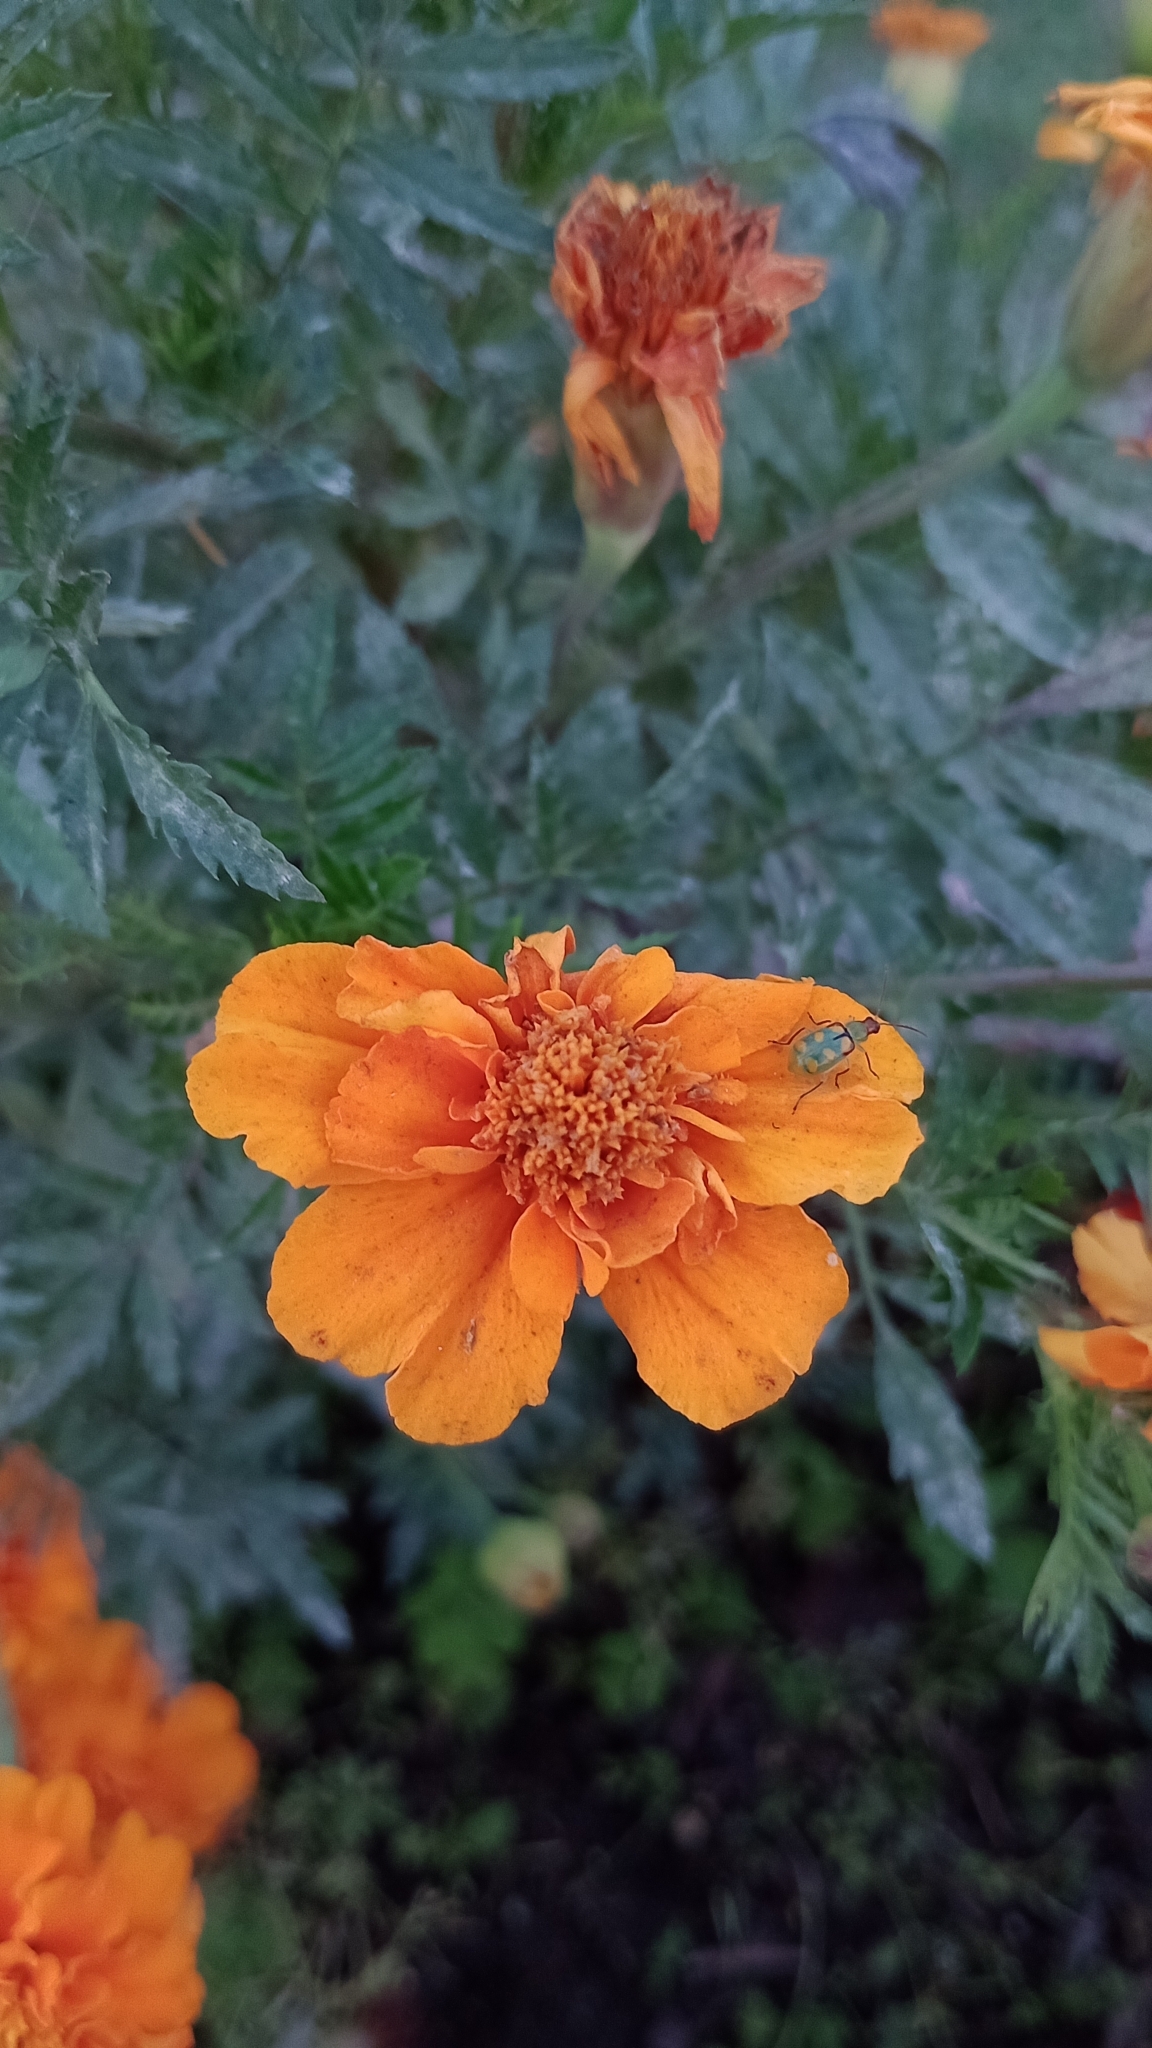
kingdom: Animalia
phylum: Arthropoda
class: Insecta
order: Coleoptera
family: Chrysomelidae
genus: Diabrotica
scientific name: Diabrotica speciosa
